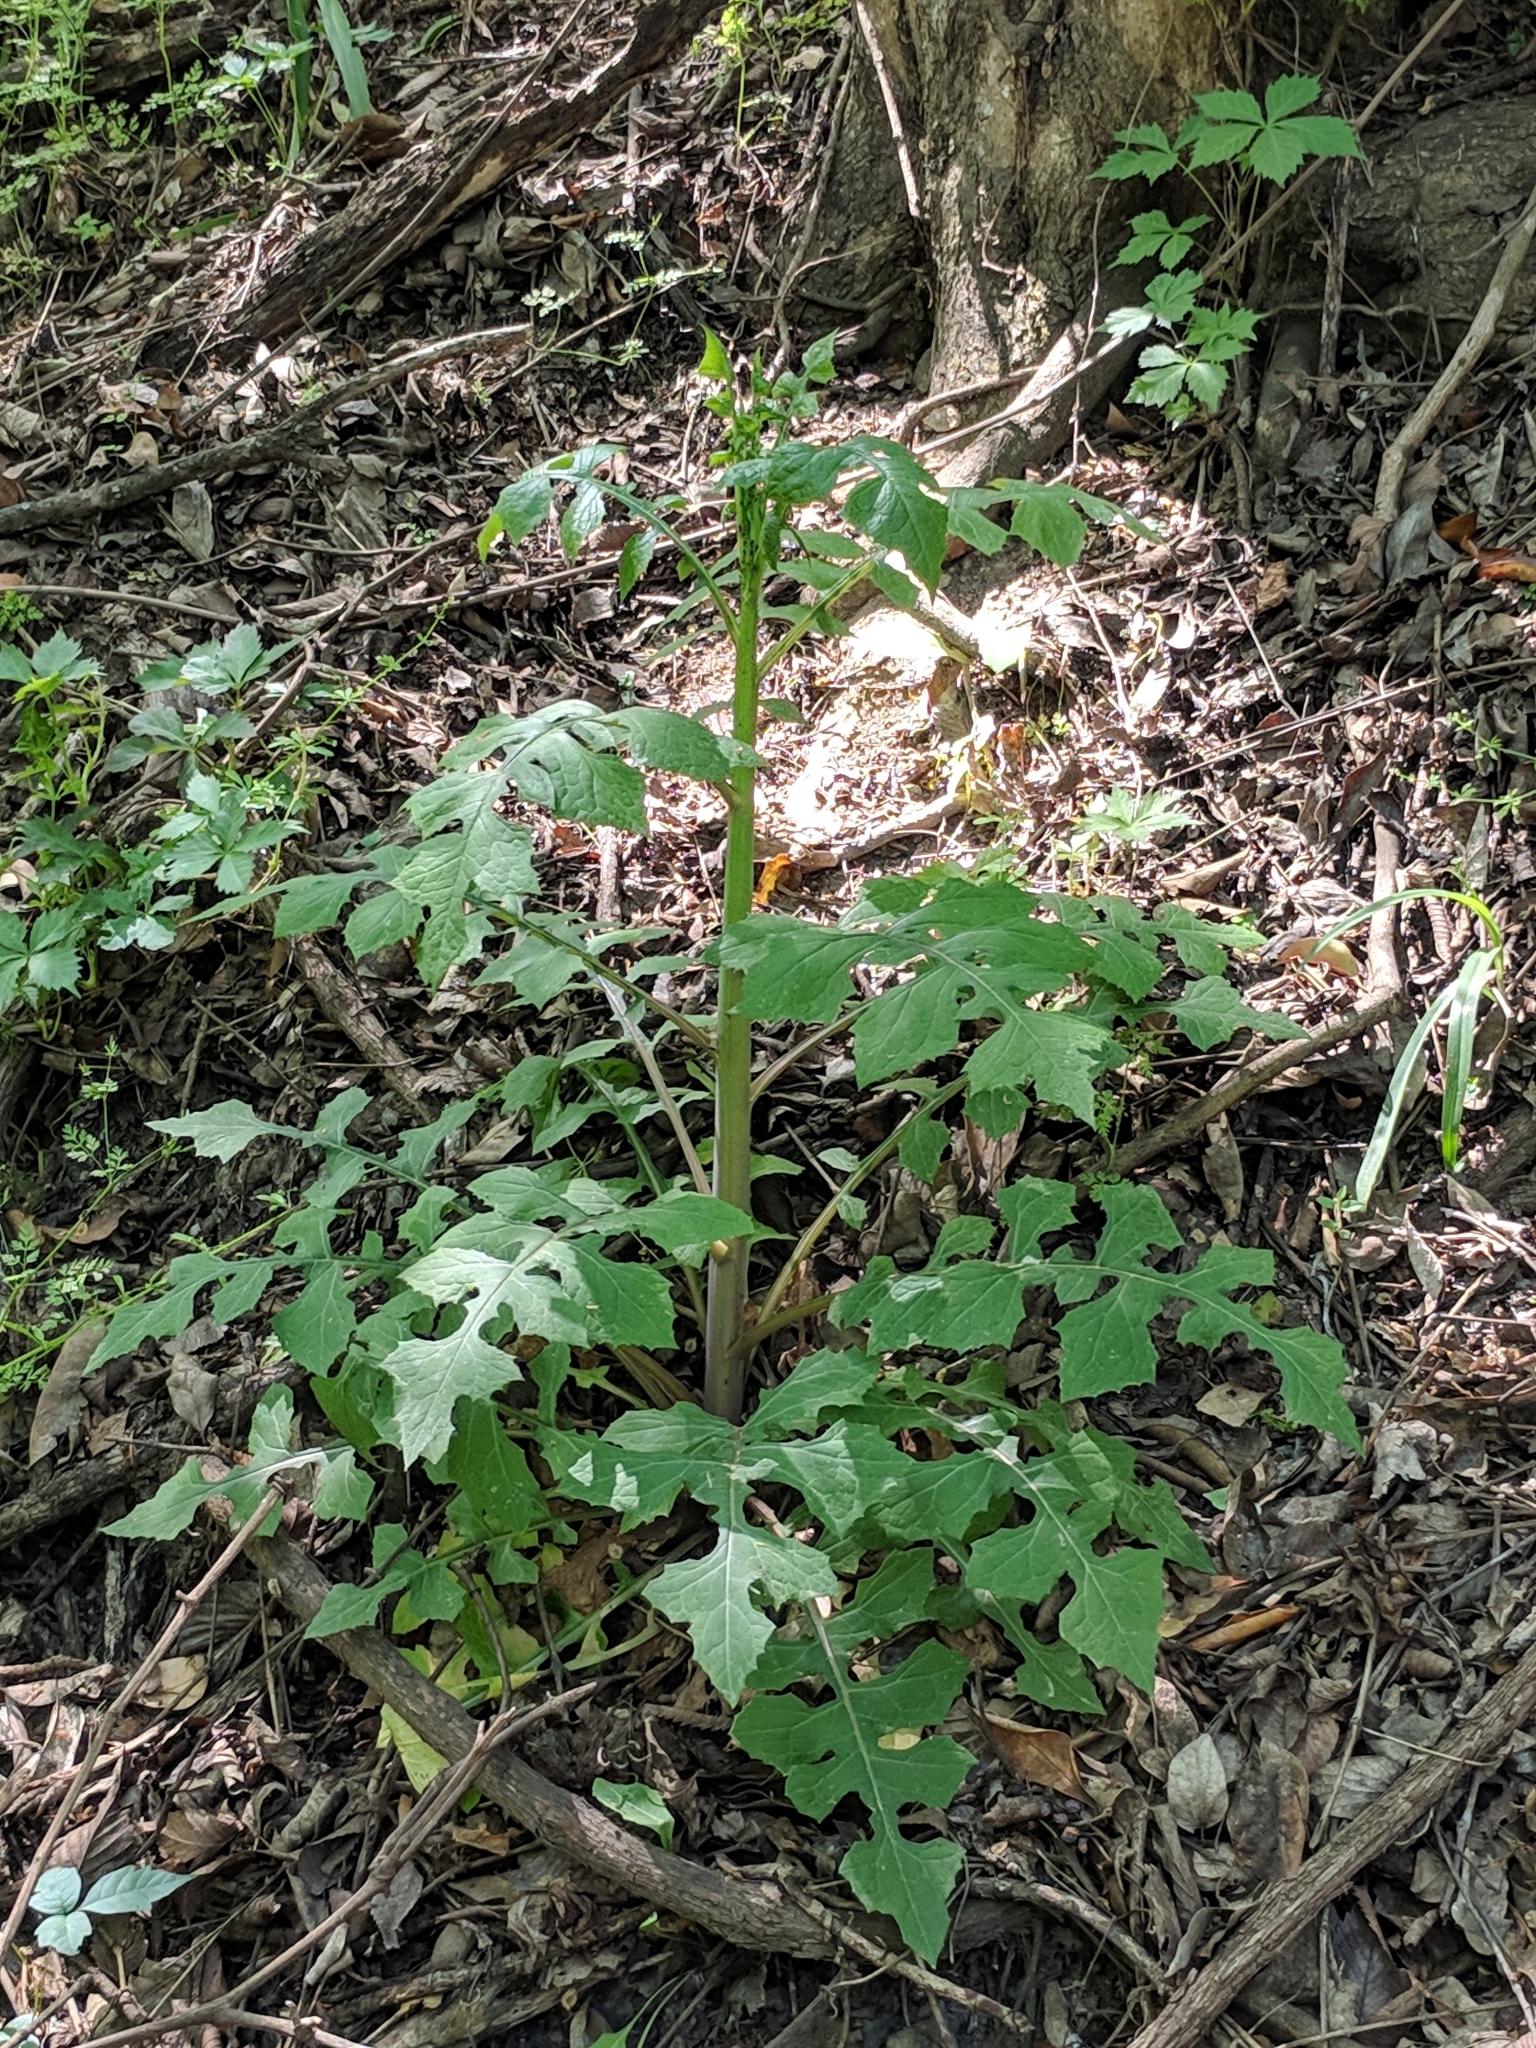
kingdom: Plantae
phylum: Tracheophyta
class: Magnoliopsida
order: Asterales
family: Asteraceae
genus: Lactuca
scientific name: Lactuca floridana
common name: Woodland lettuce
